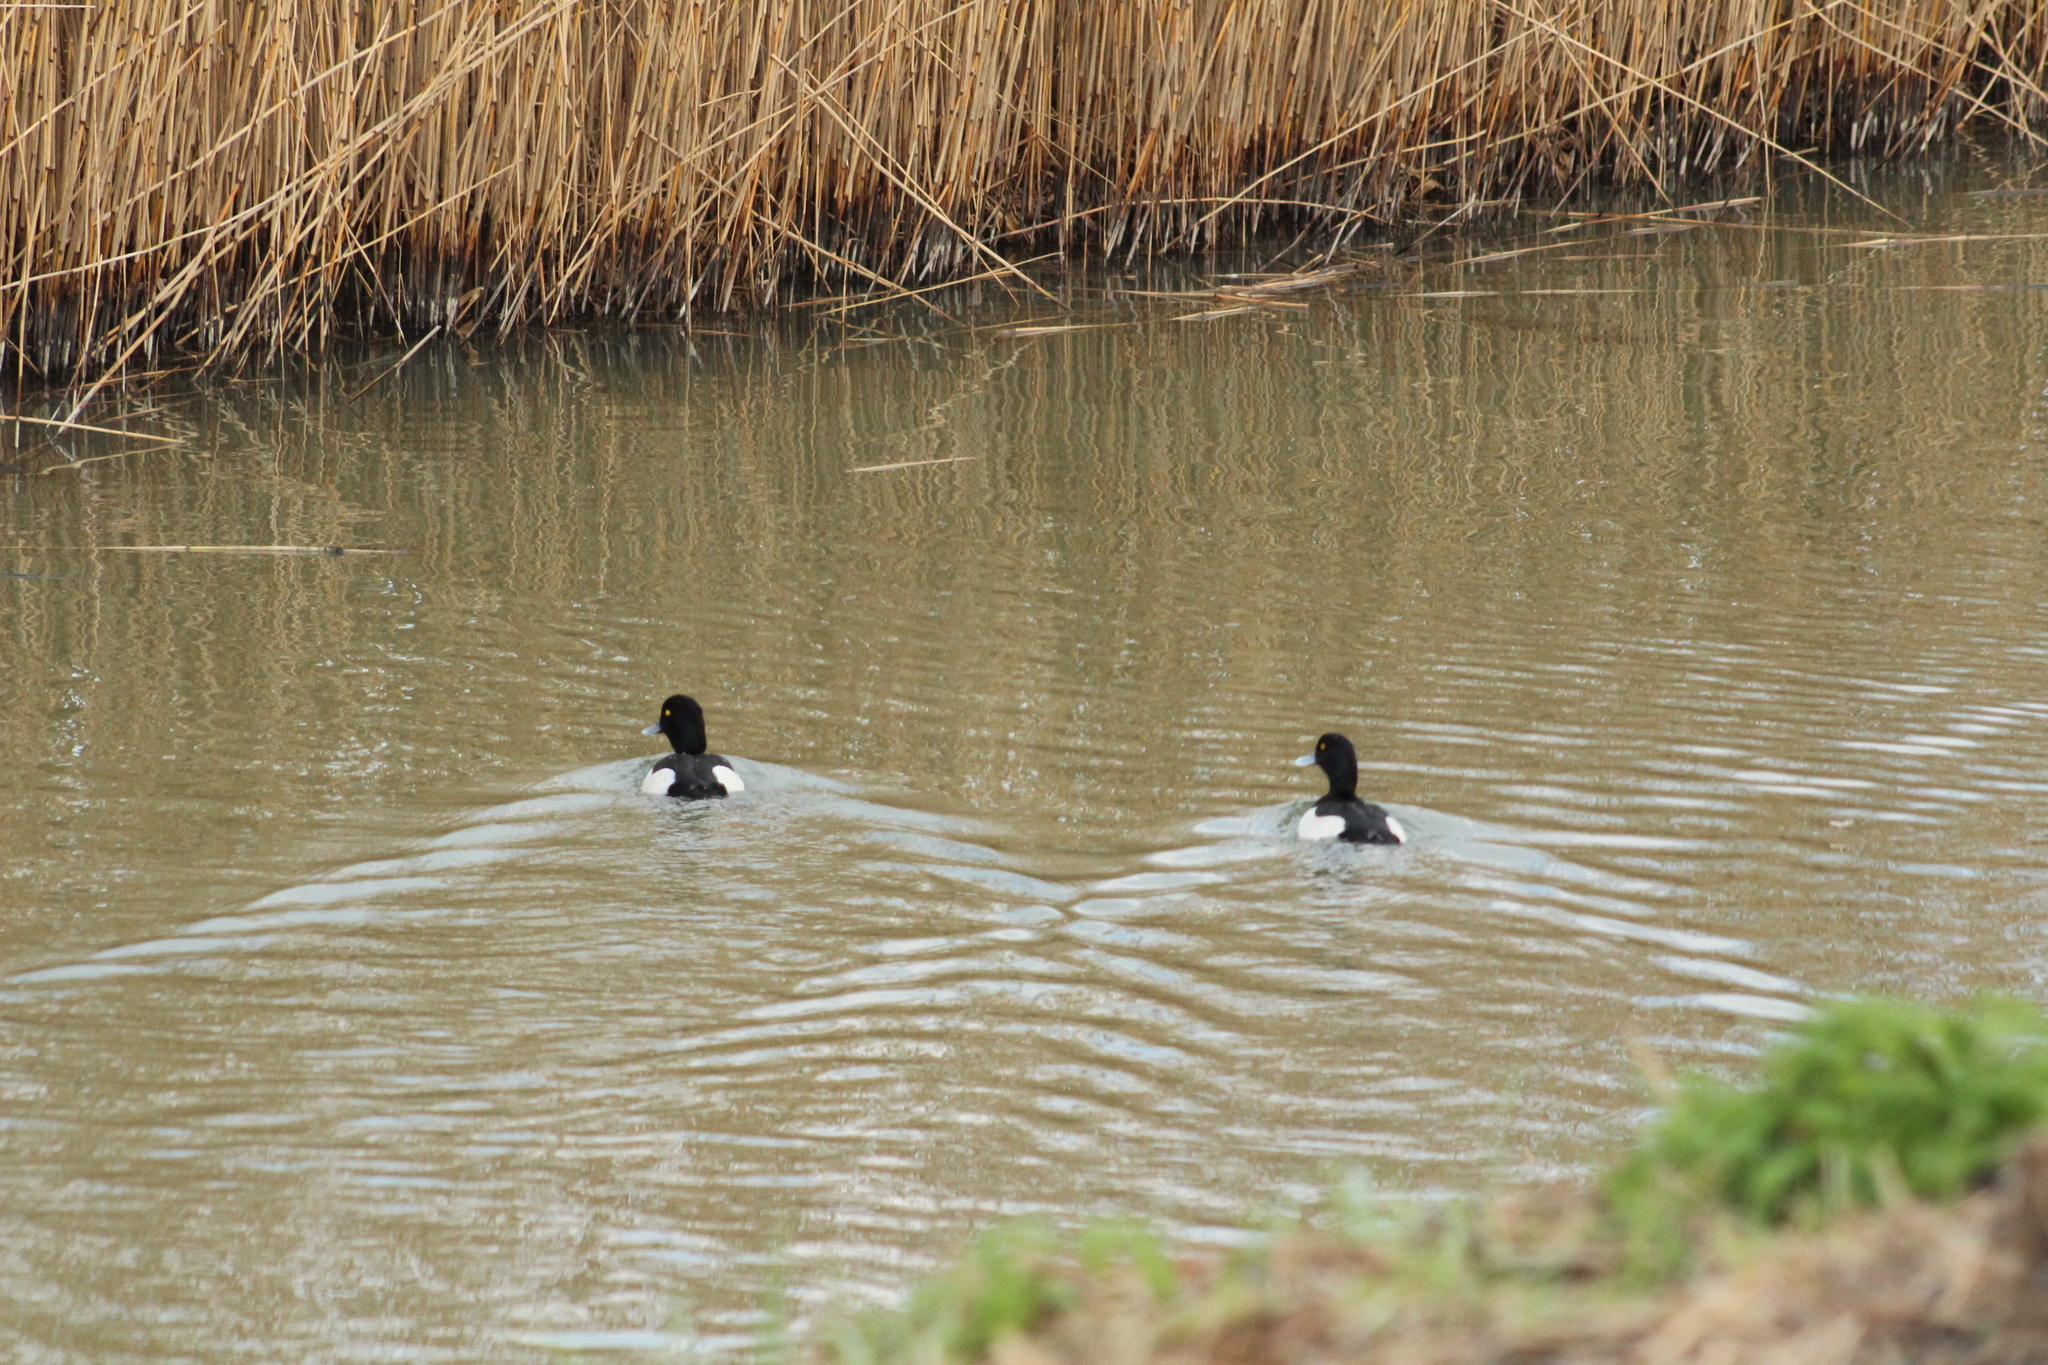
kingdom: Animalia
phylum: Chordata
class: Aves
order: Anseriformes
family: Anatidae
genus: Aythya
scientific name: Aythya fuligula
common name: Tufted duck
